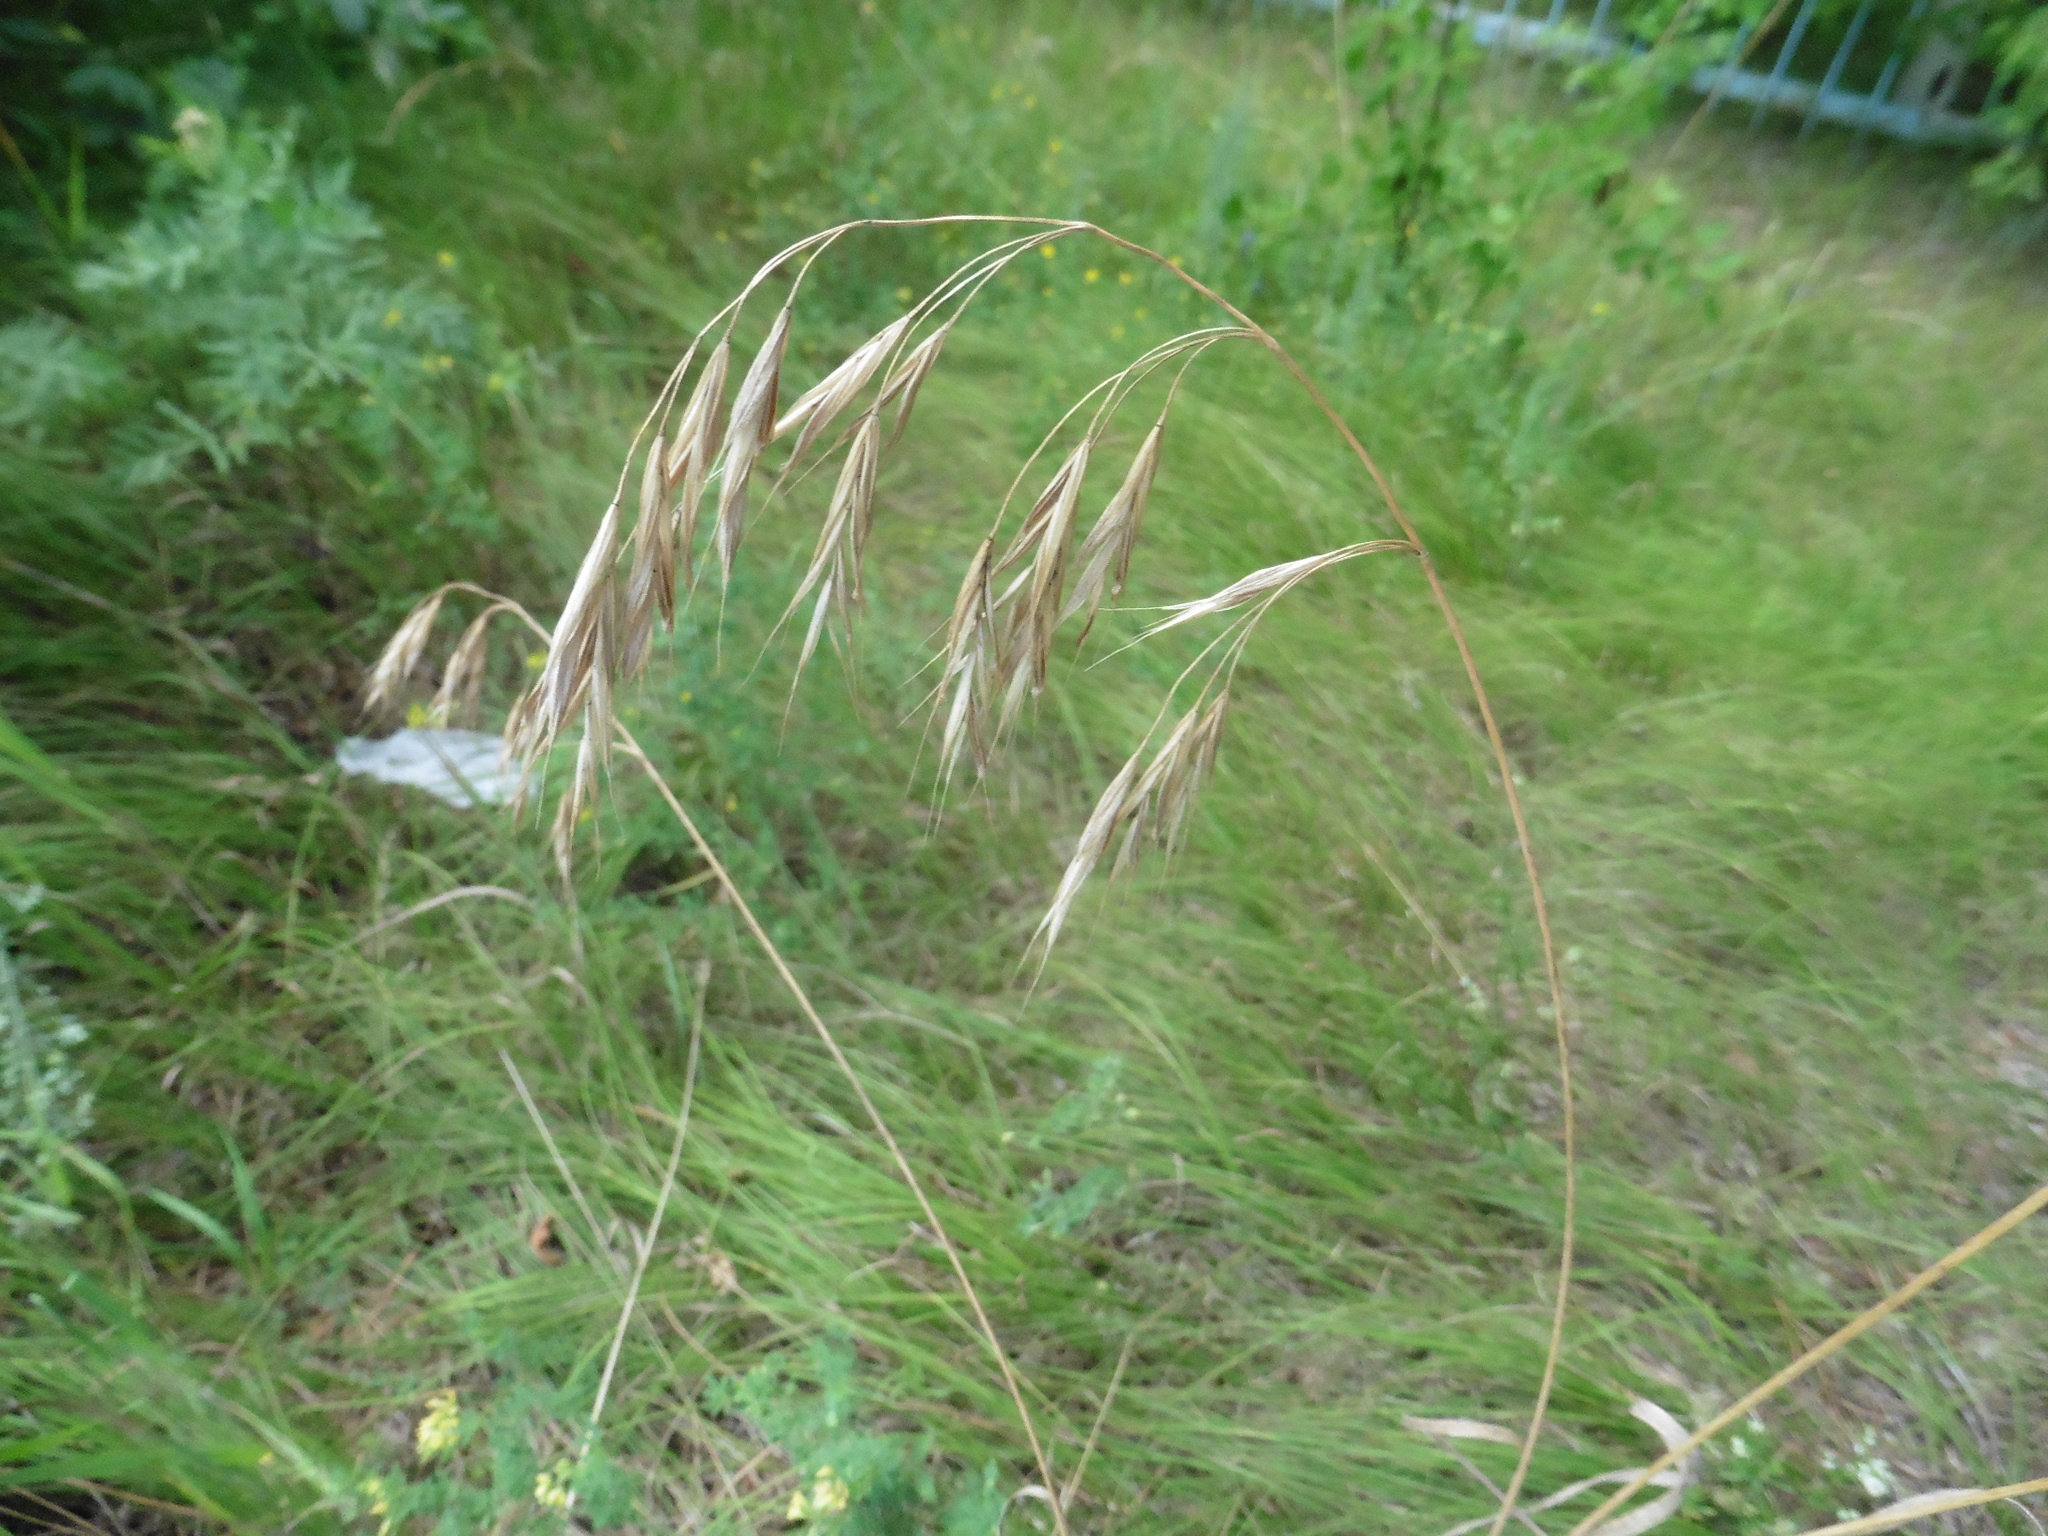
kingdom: Plantae
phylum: Tracheophyta
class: Liliopsida
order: Poales
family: Poaceae
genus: Bromus
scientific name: Bromus riparius
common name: Meadow brome
